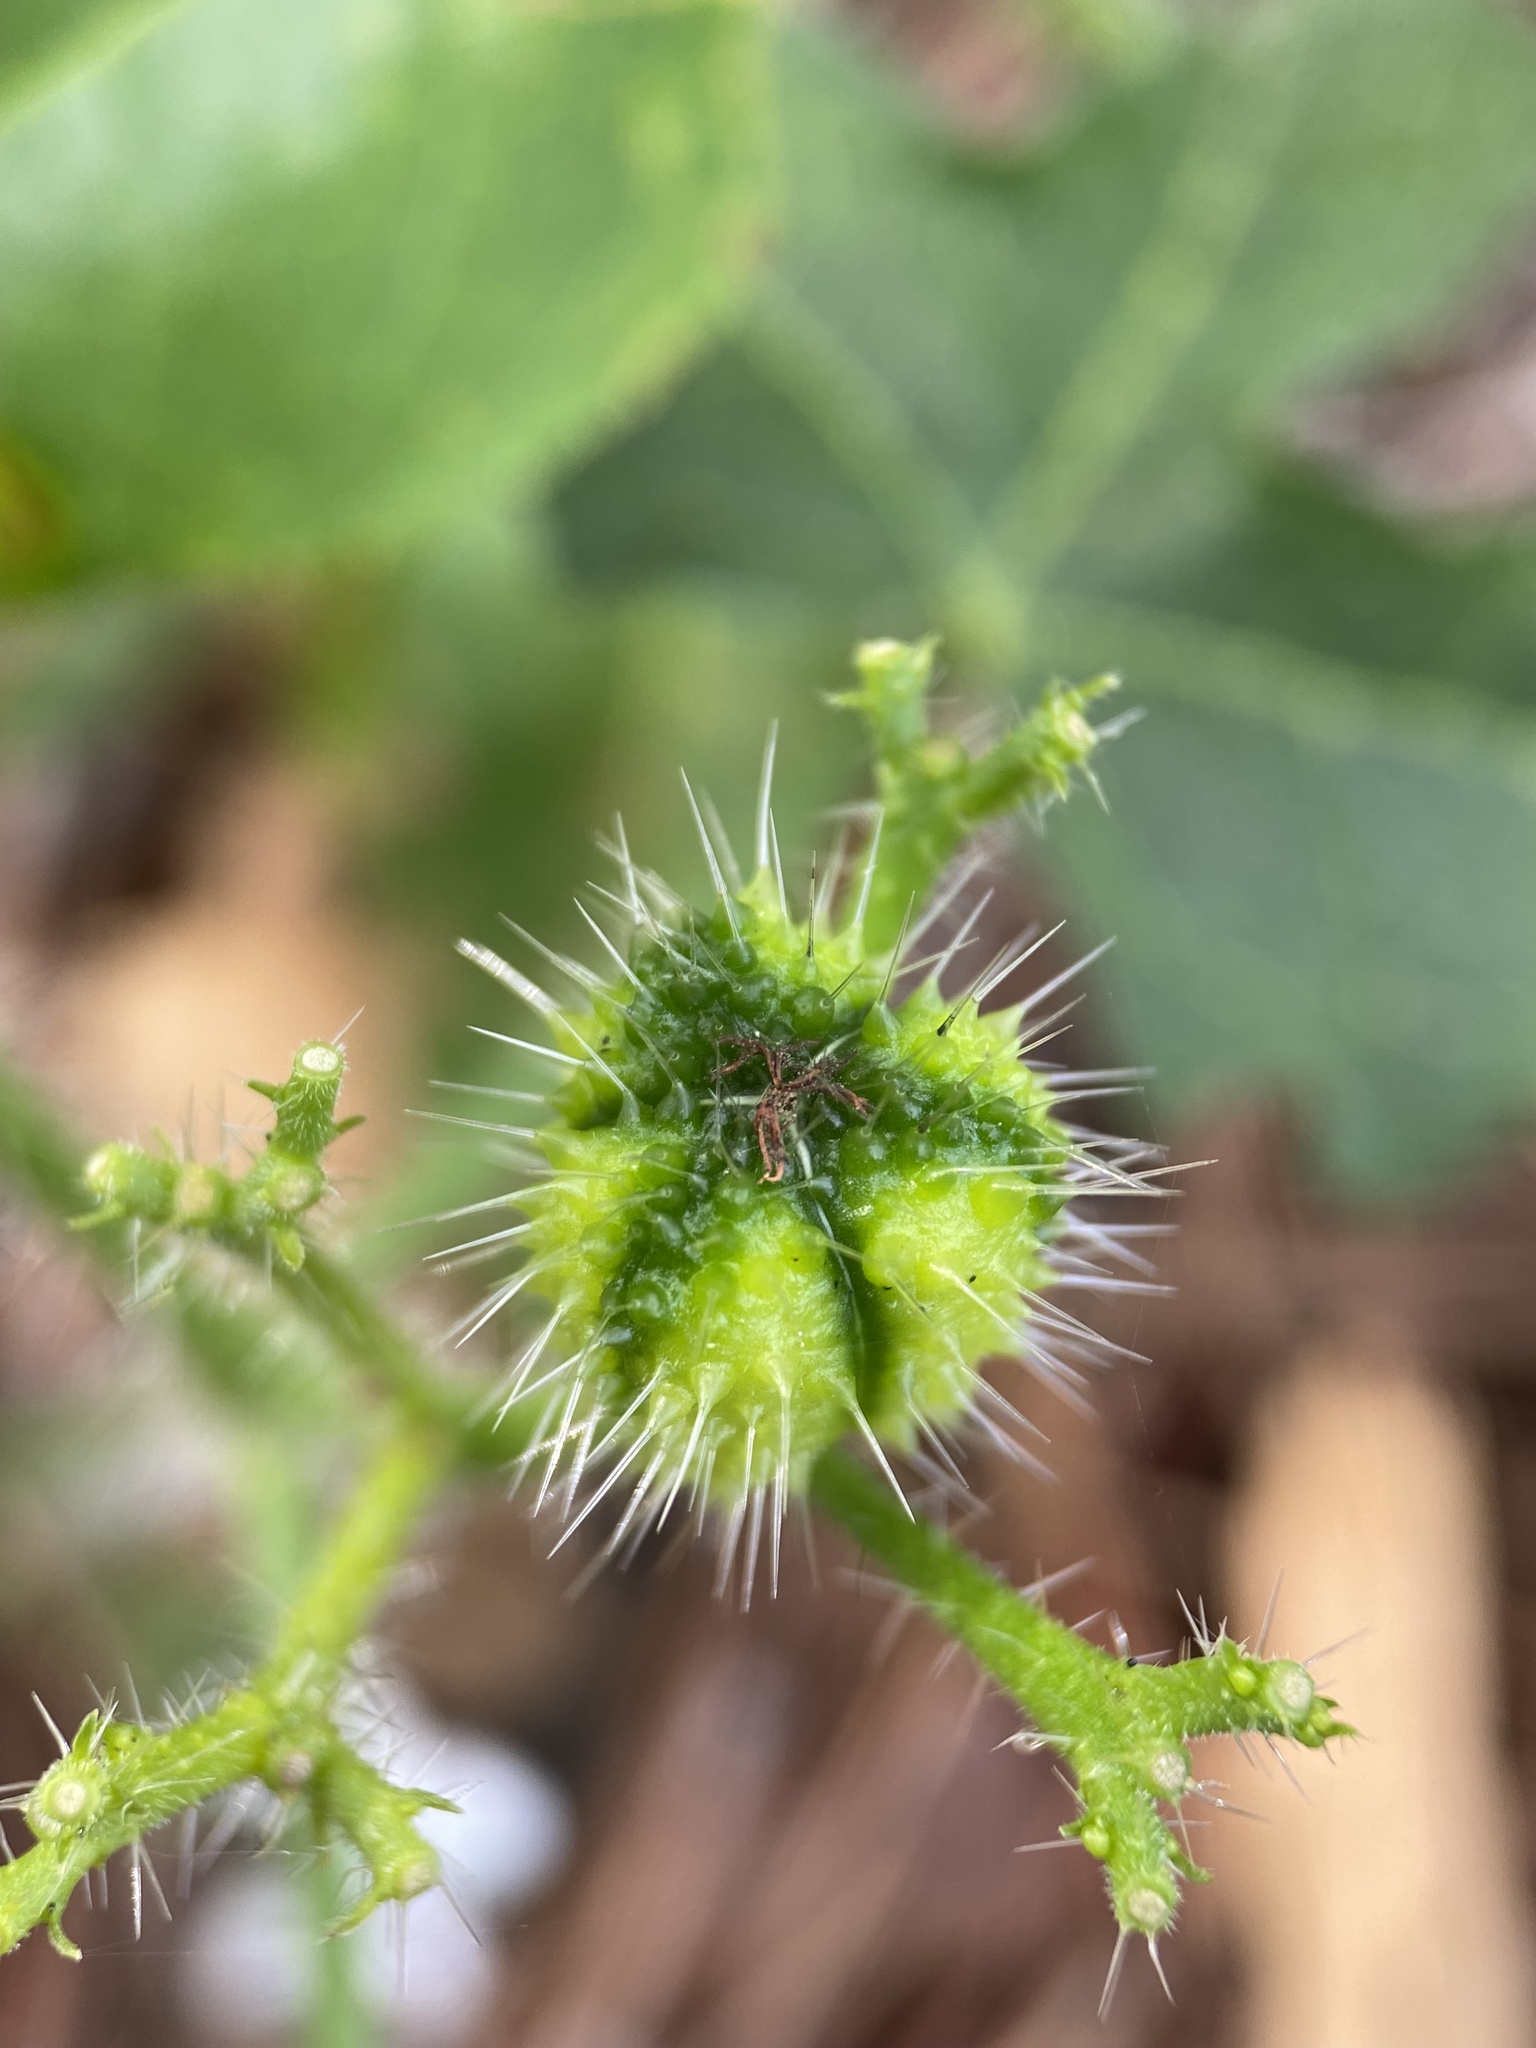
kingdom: Plantae
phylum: Tracheophyta
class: Magnoliopsida
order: Malpighiales
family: Euphorbiaceae
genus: Cnidoscolus
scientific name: Cnidoscolus stimulosus
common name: Bull-nettle
